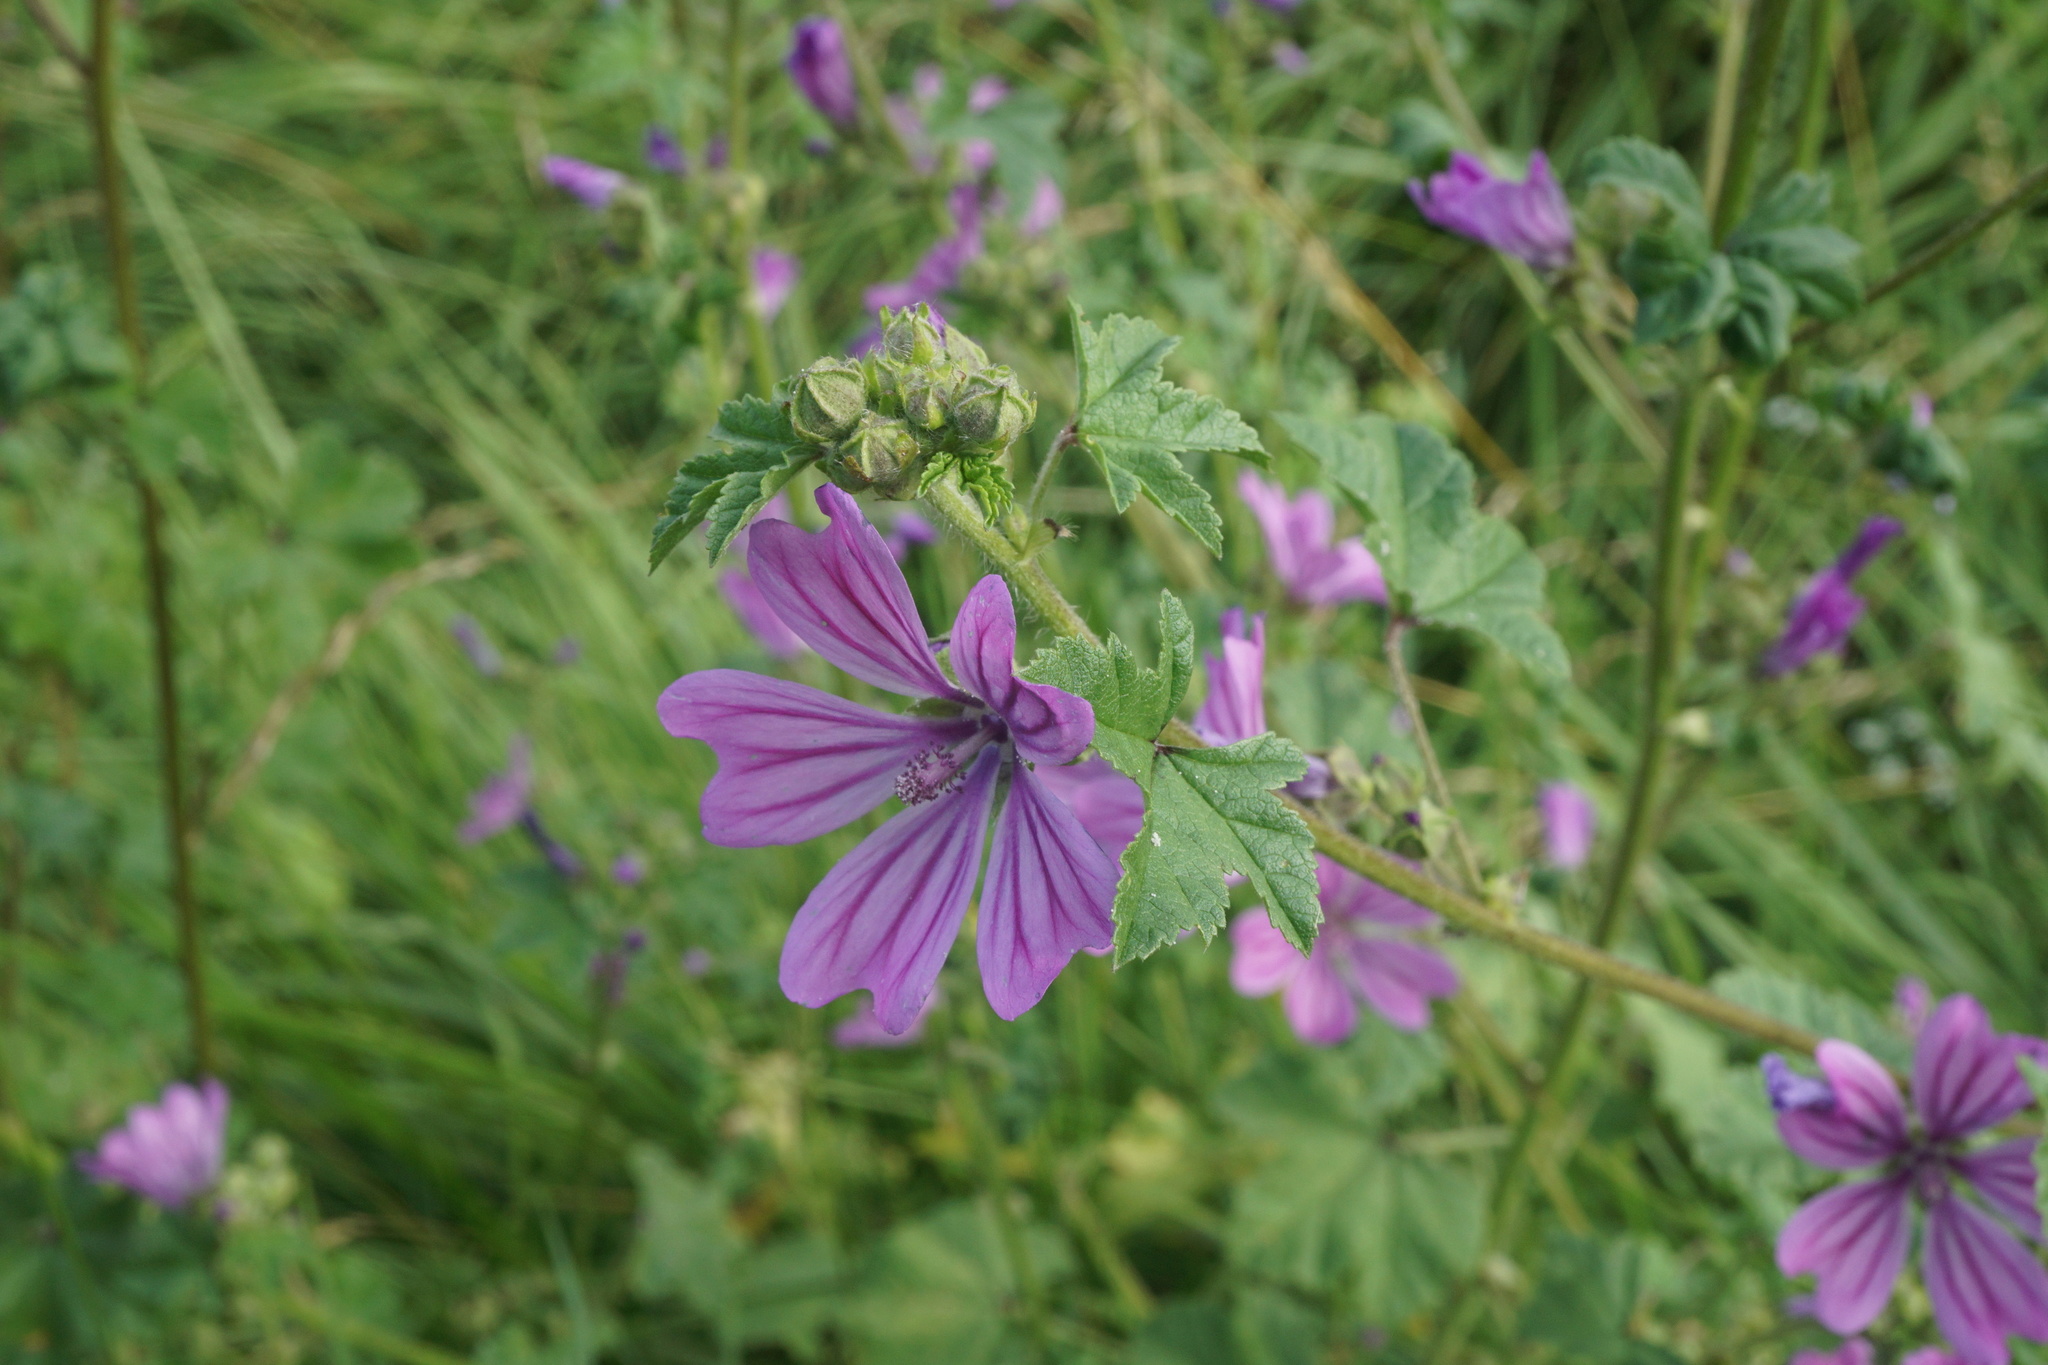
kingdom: Plantae
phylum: Tracheophyta
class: Magnoliopsida
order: Malvales
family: Malvaceae
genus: Malva
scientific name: Malva sylvestris
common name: Common mallow
